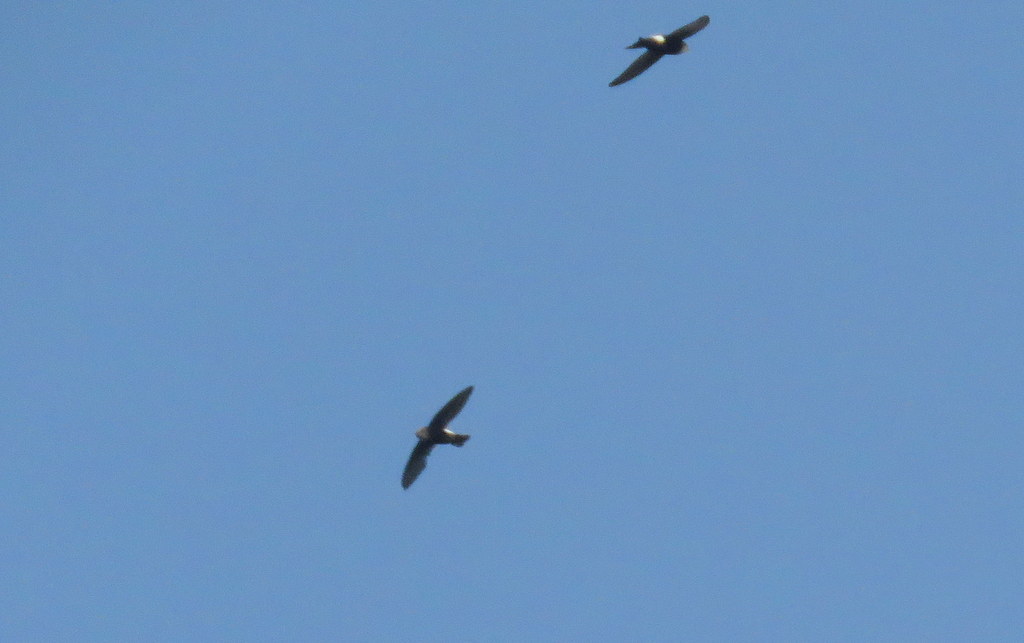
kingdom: Animalia
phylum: Chordata
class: Aves
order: Apodiformes
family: Apodidae
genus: Apus
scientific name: Apus horus
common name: Horus swift
